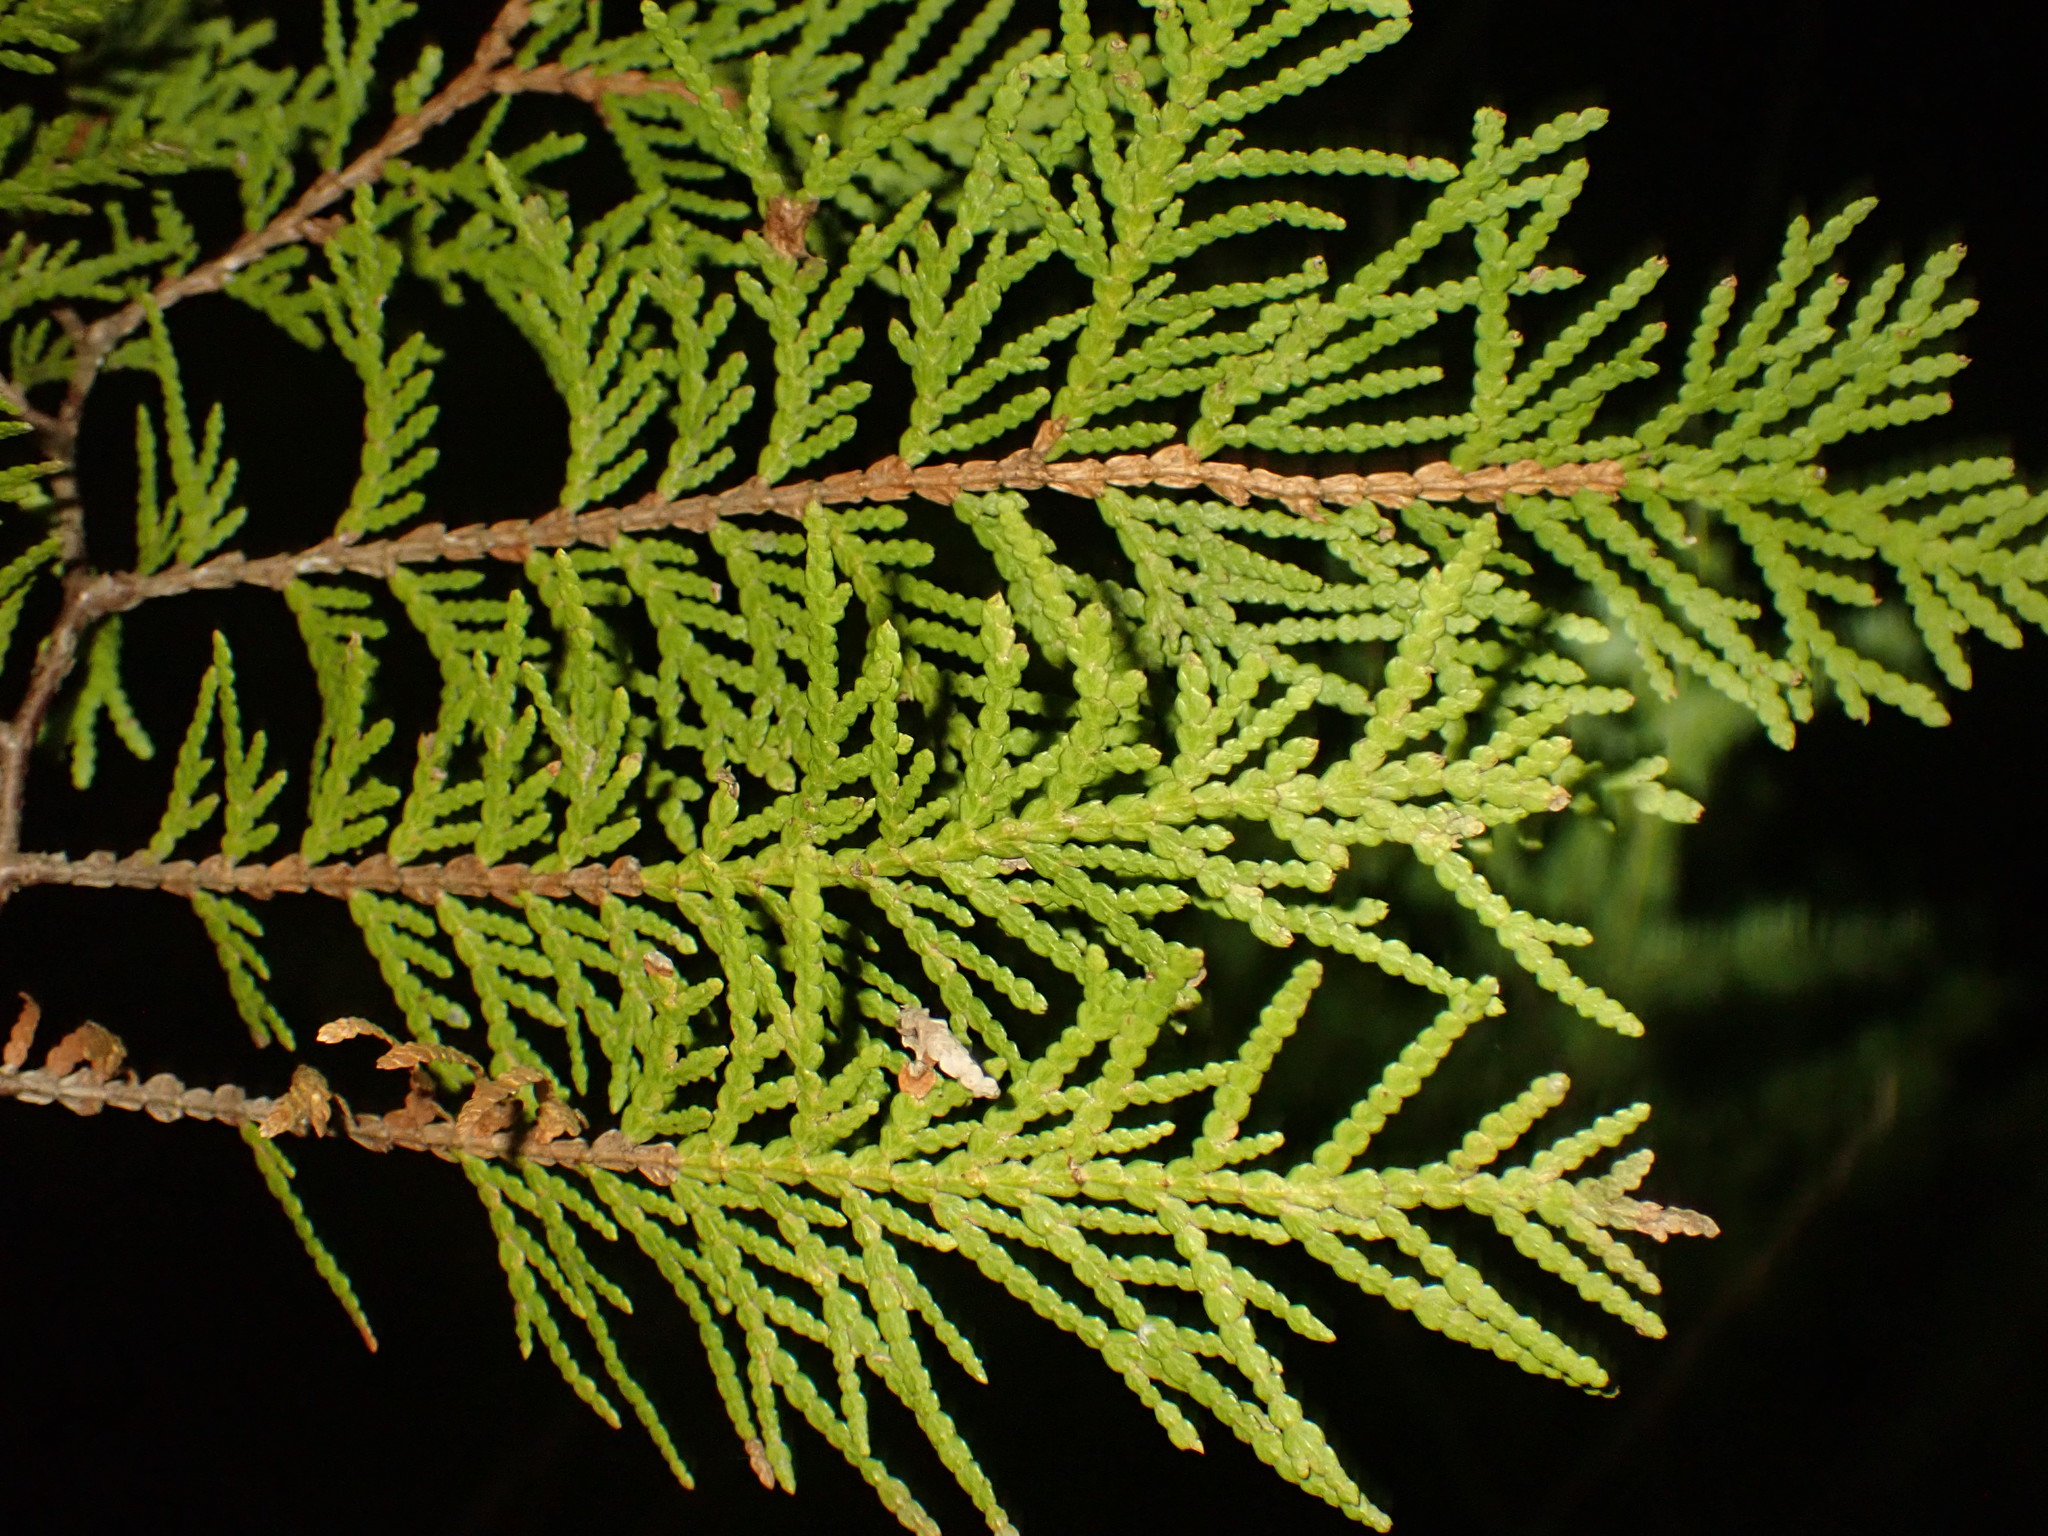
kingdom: Plantae
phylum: Tracheophyta
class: Pinopsida
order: Pinales
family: Cupressaceae
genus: Thuja
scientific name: Thuja occidentalis
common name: Northern white-cedar
